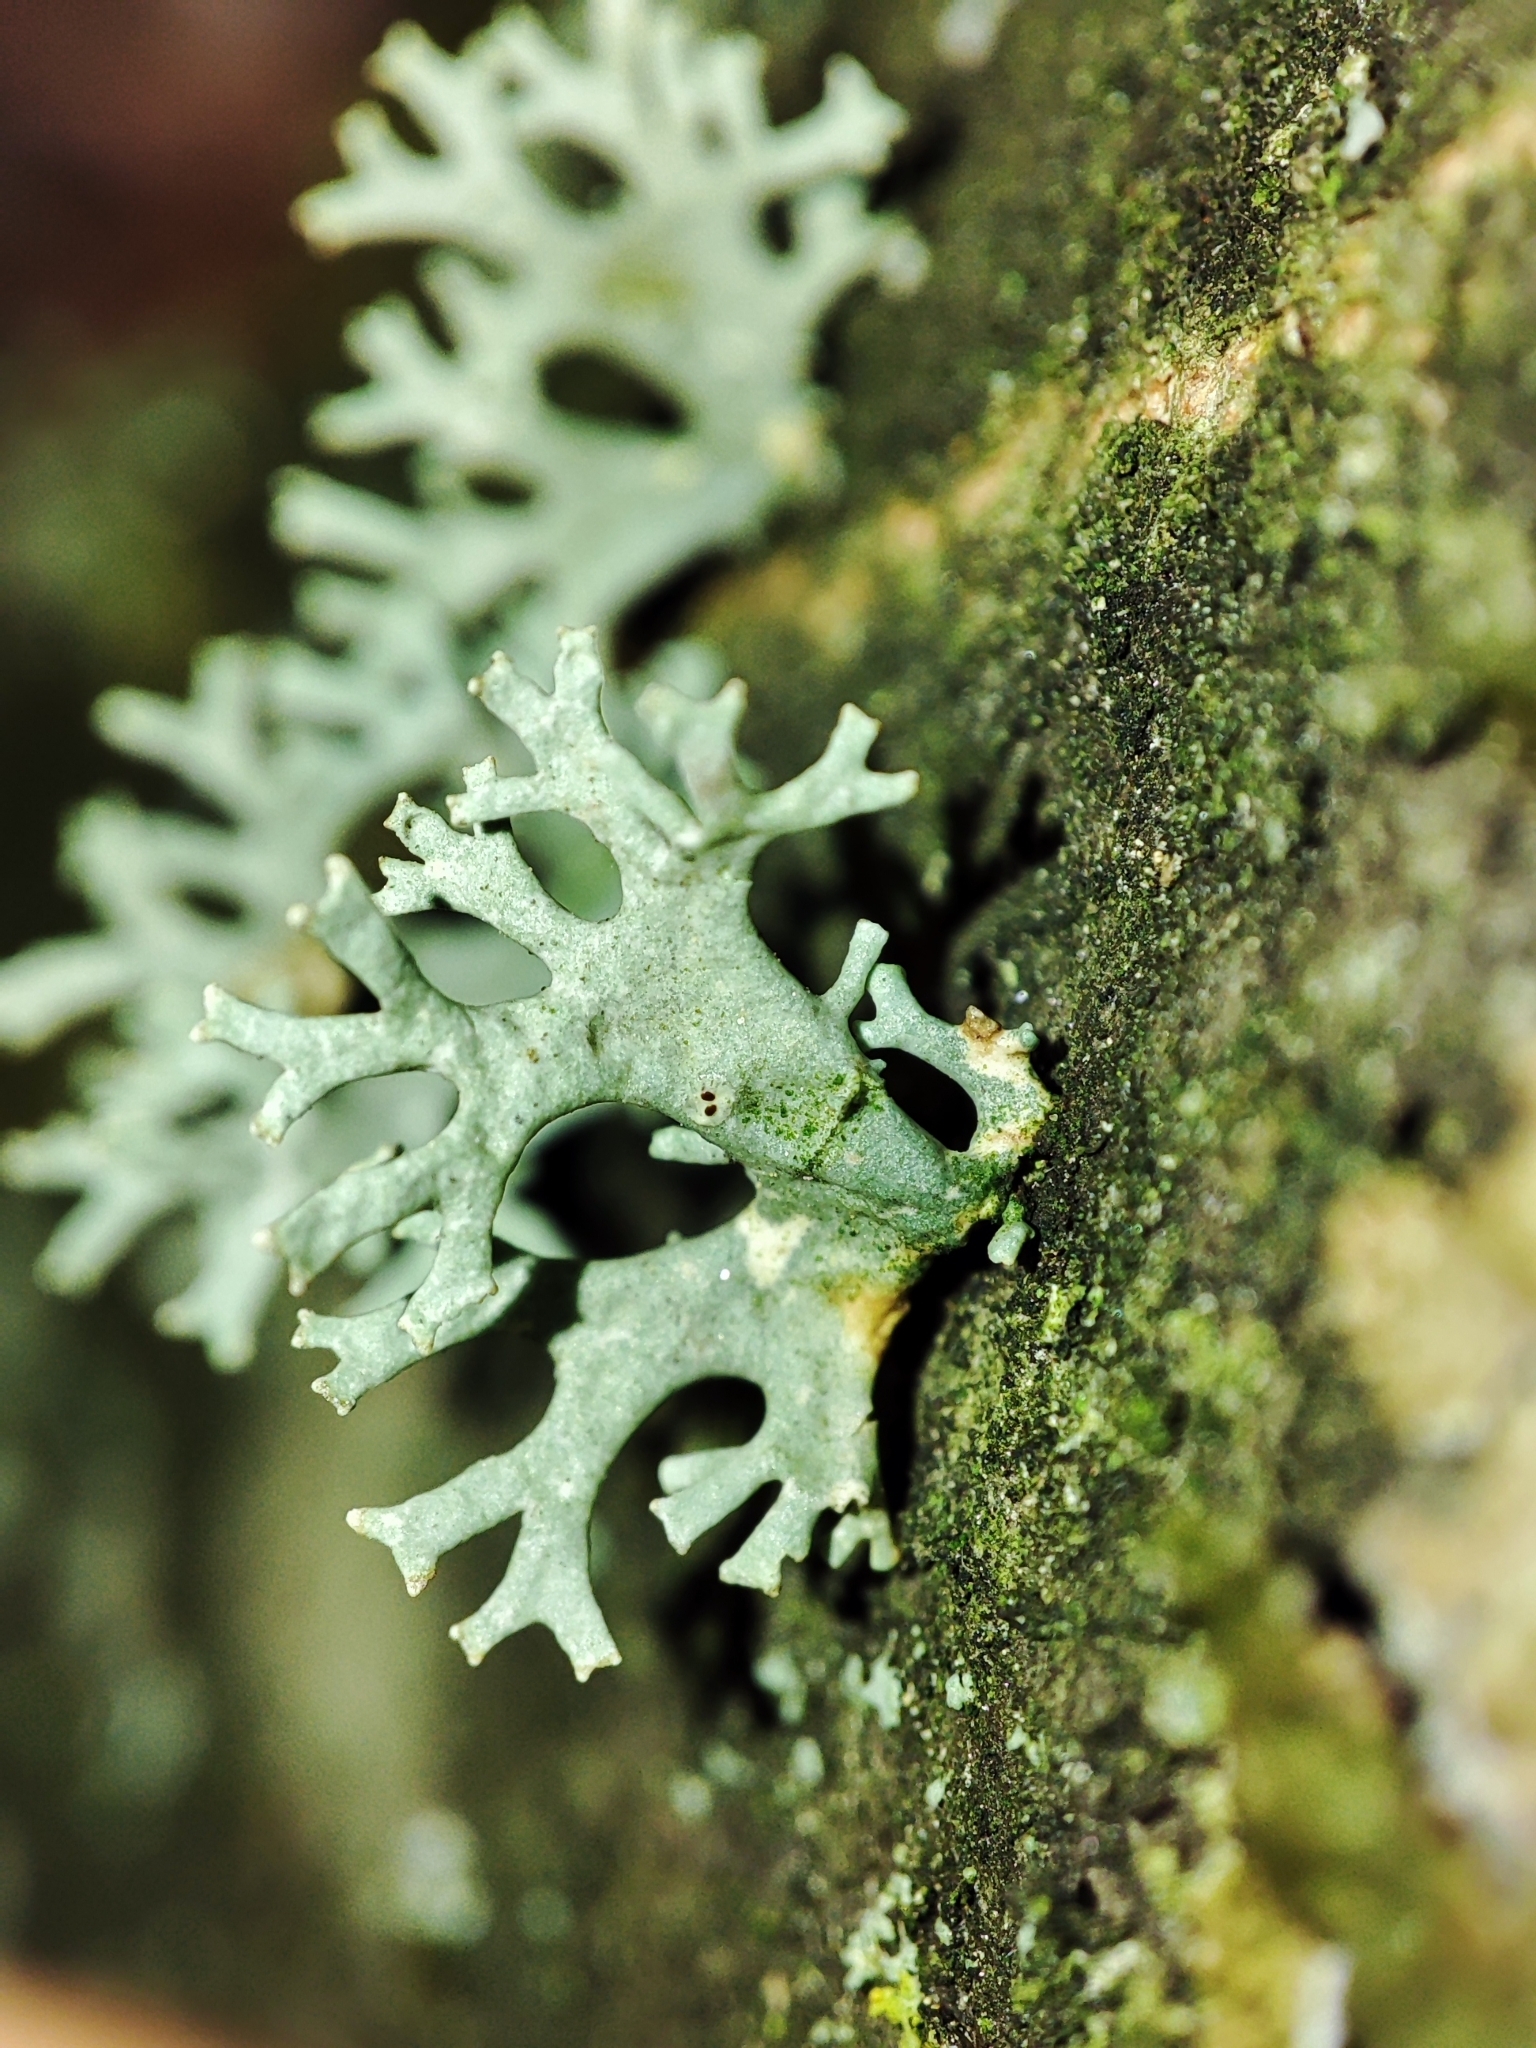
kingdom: Fungi
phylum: Ascomycota
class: Lecanoromycetes
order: Lecanorales
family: Parmeliaceae
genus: Evernia
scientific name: Evernia prunastri
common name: Oak moss
